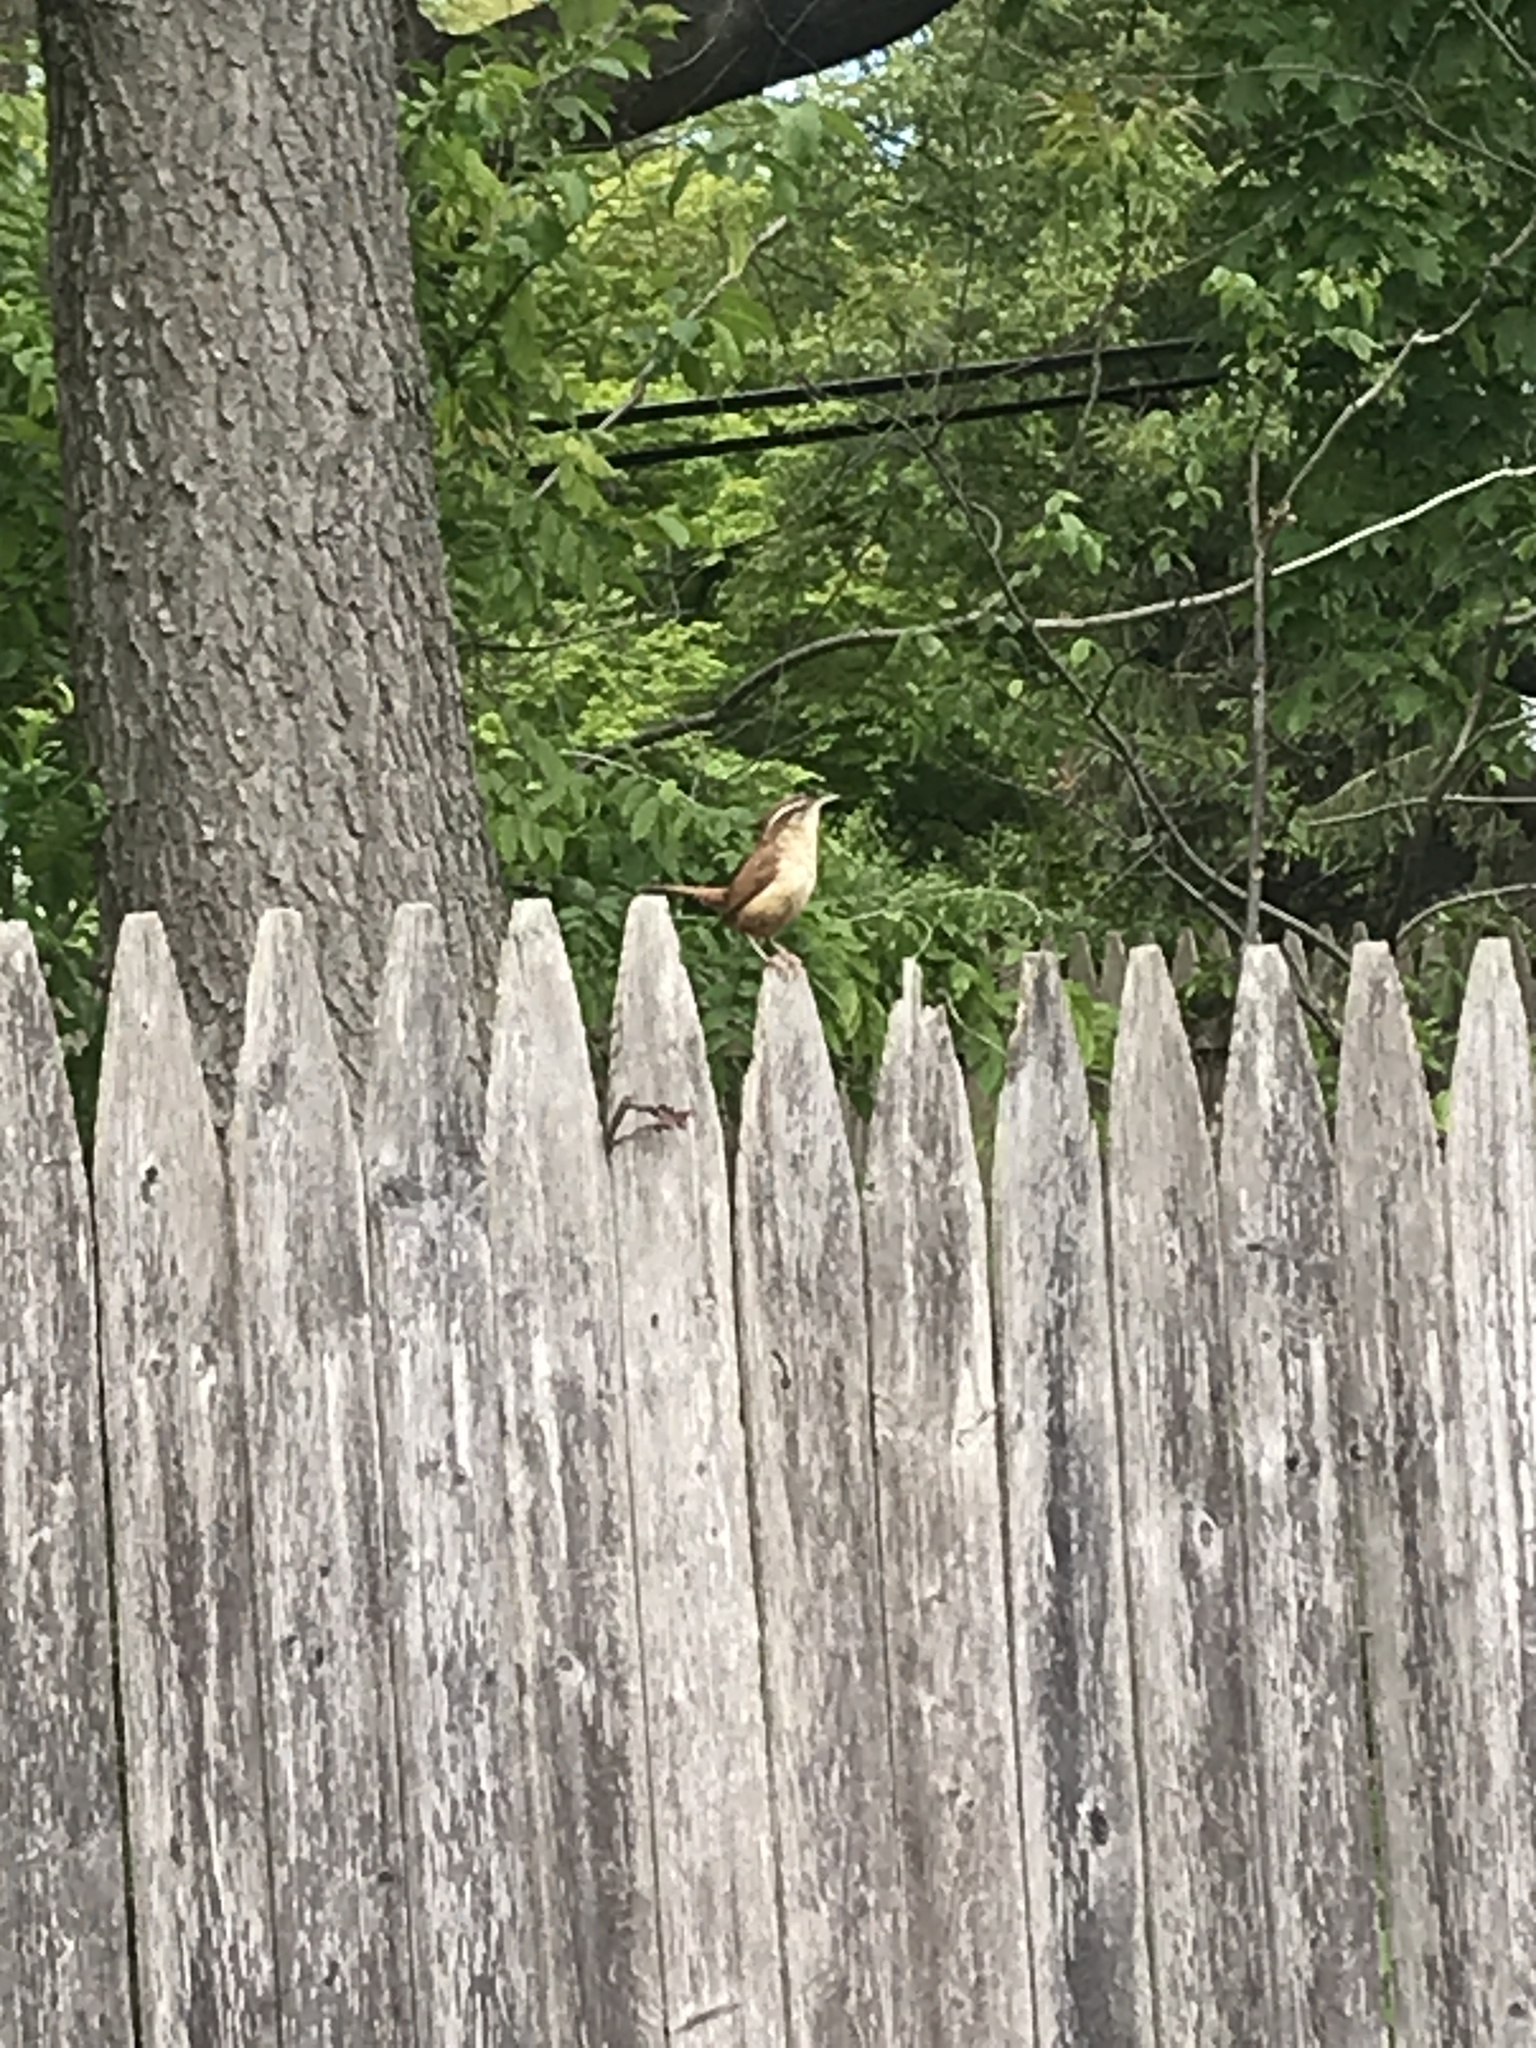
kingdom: Animalia
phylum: Chordata
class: Aves
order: Passeriformes
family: Troglodytidae
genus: Thryothorus
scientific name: Thryothorus ludovicianus
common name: Carolina wren
